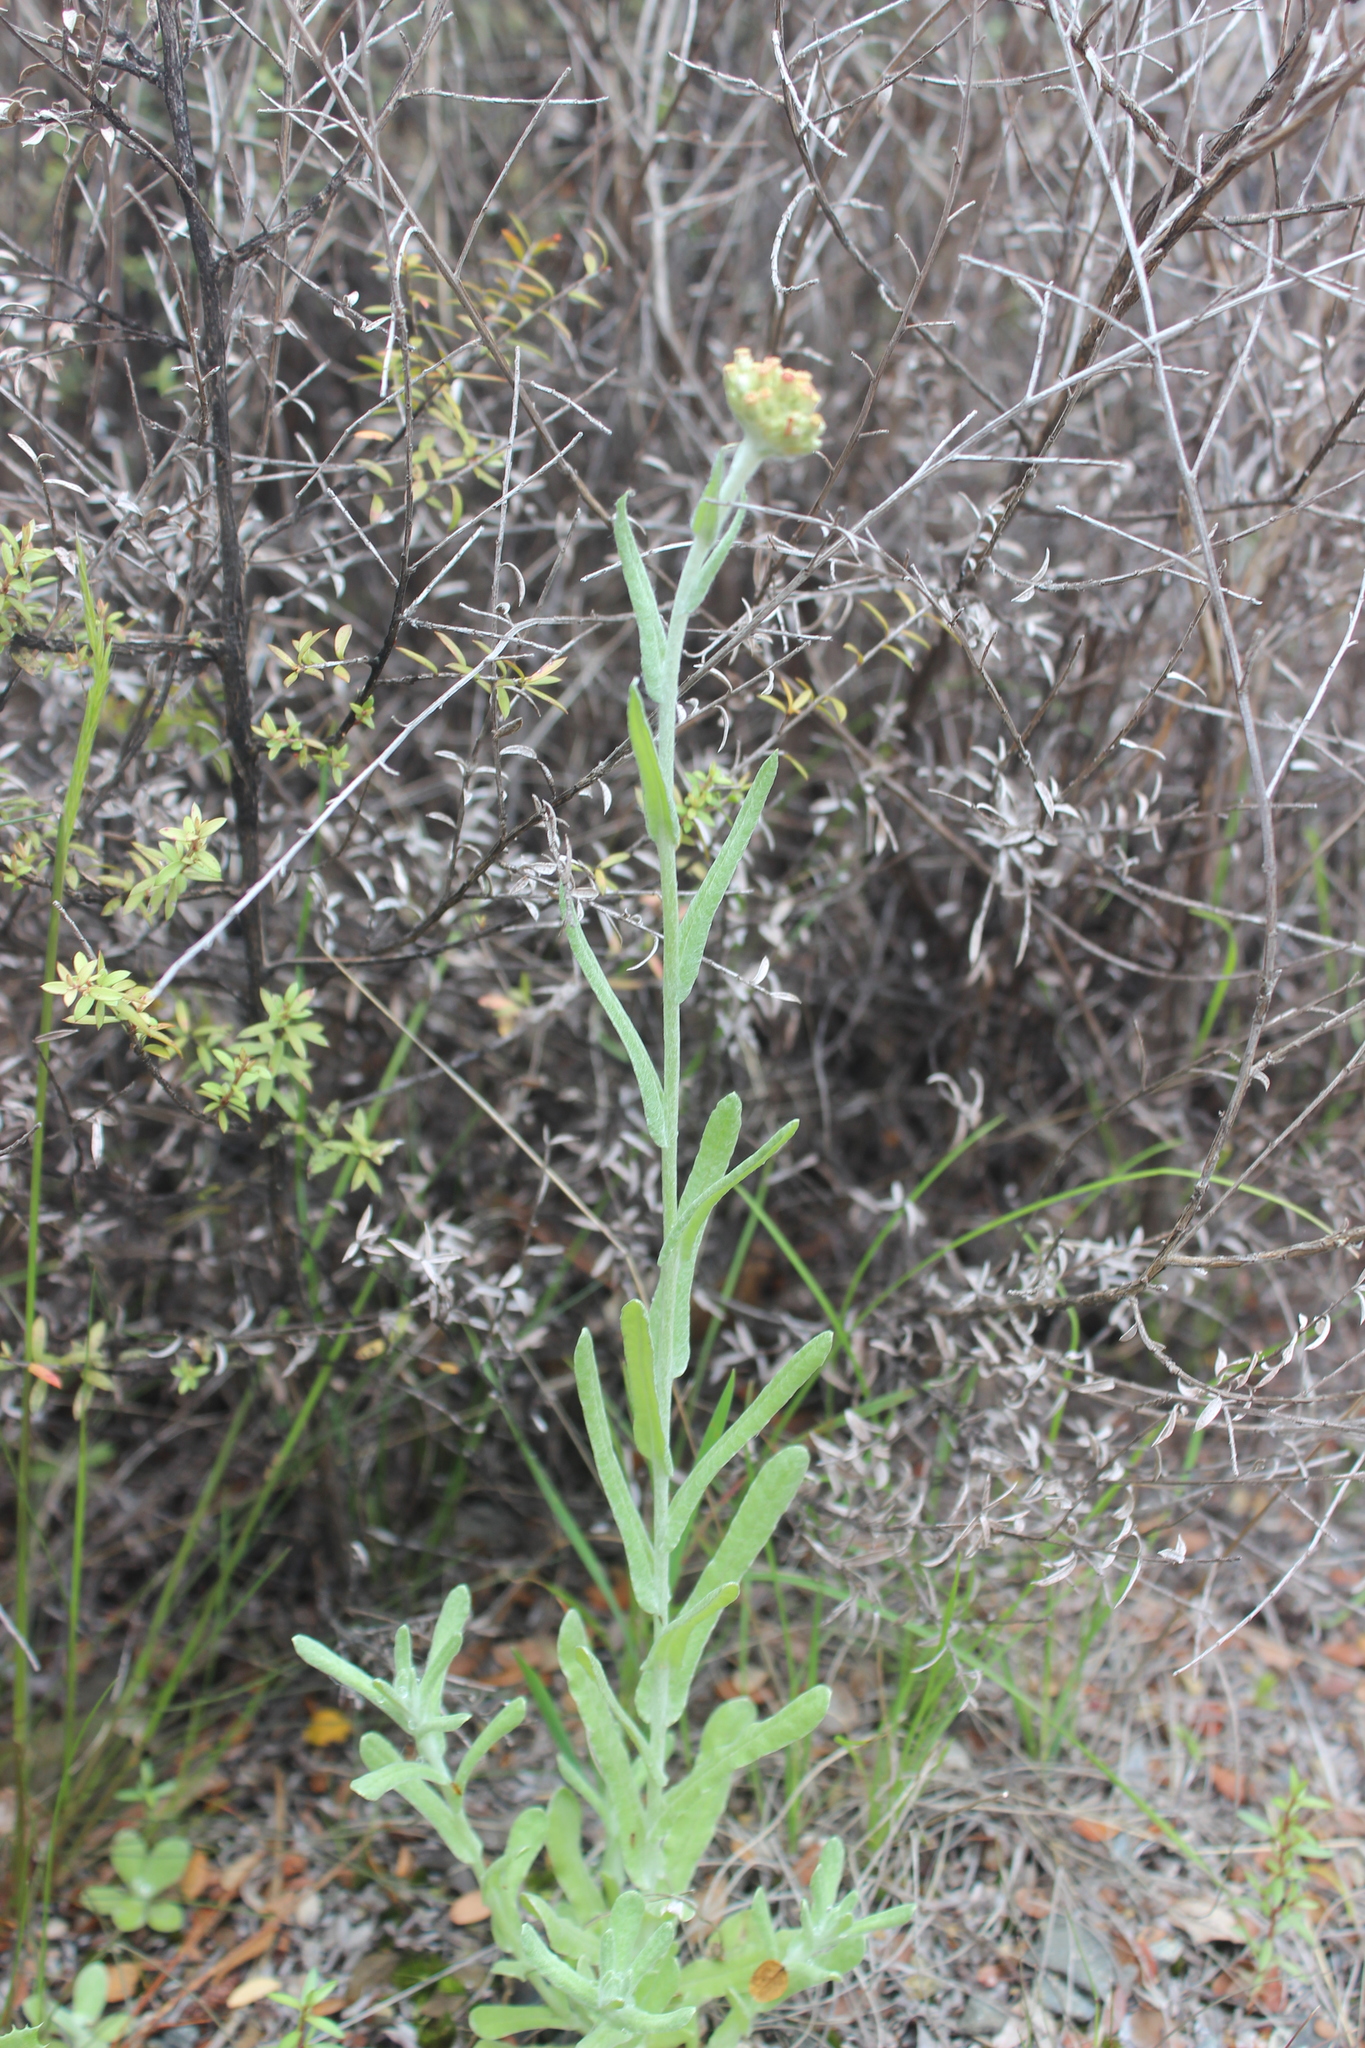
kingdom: Plantae
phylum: Tracheophyta
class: Magnoliopsida
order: Asterales
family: Asteraceae
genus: Helichrysum
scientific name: Helichrysum luteoalbum
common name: Daisy
